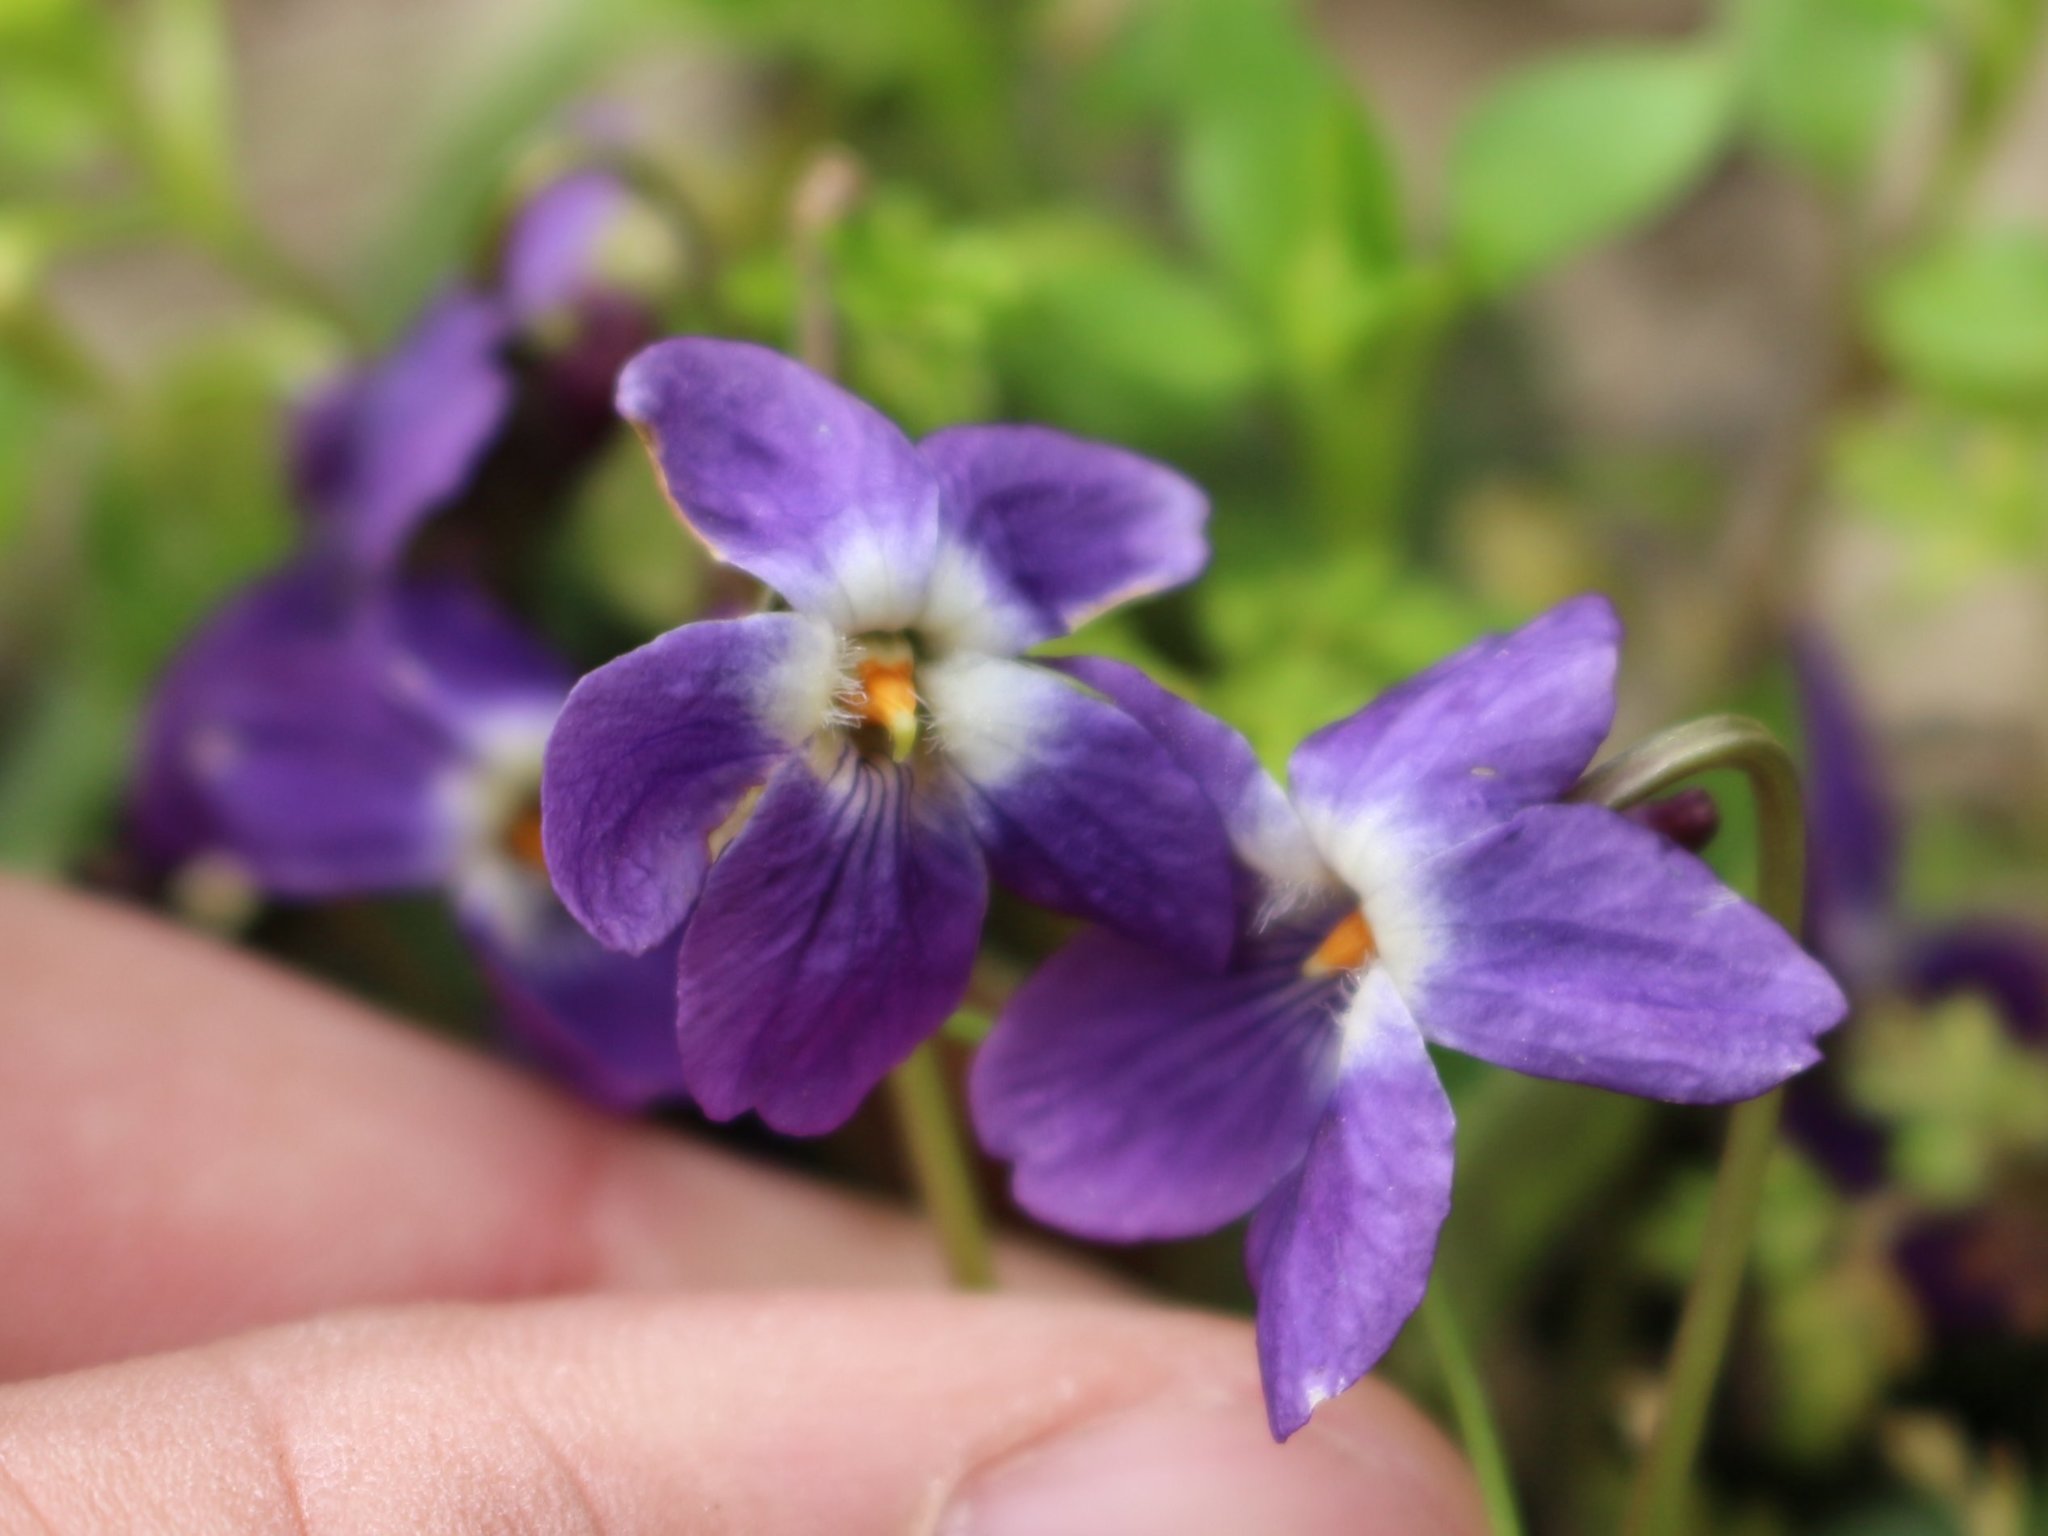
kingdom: Plantae
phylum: Tracheophyta
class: Magnoliopsida
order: Malpighiales
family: Violaceae
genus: Viola
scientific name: Viola odorata
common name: Sweet violet
